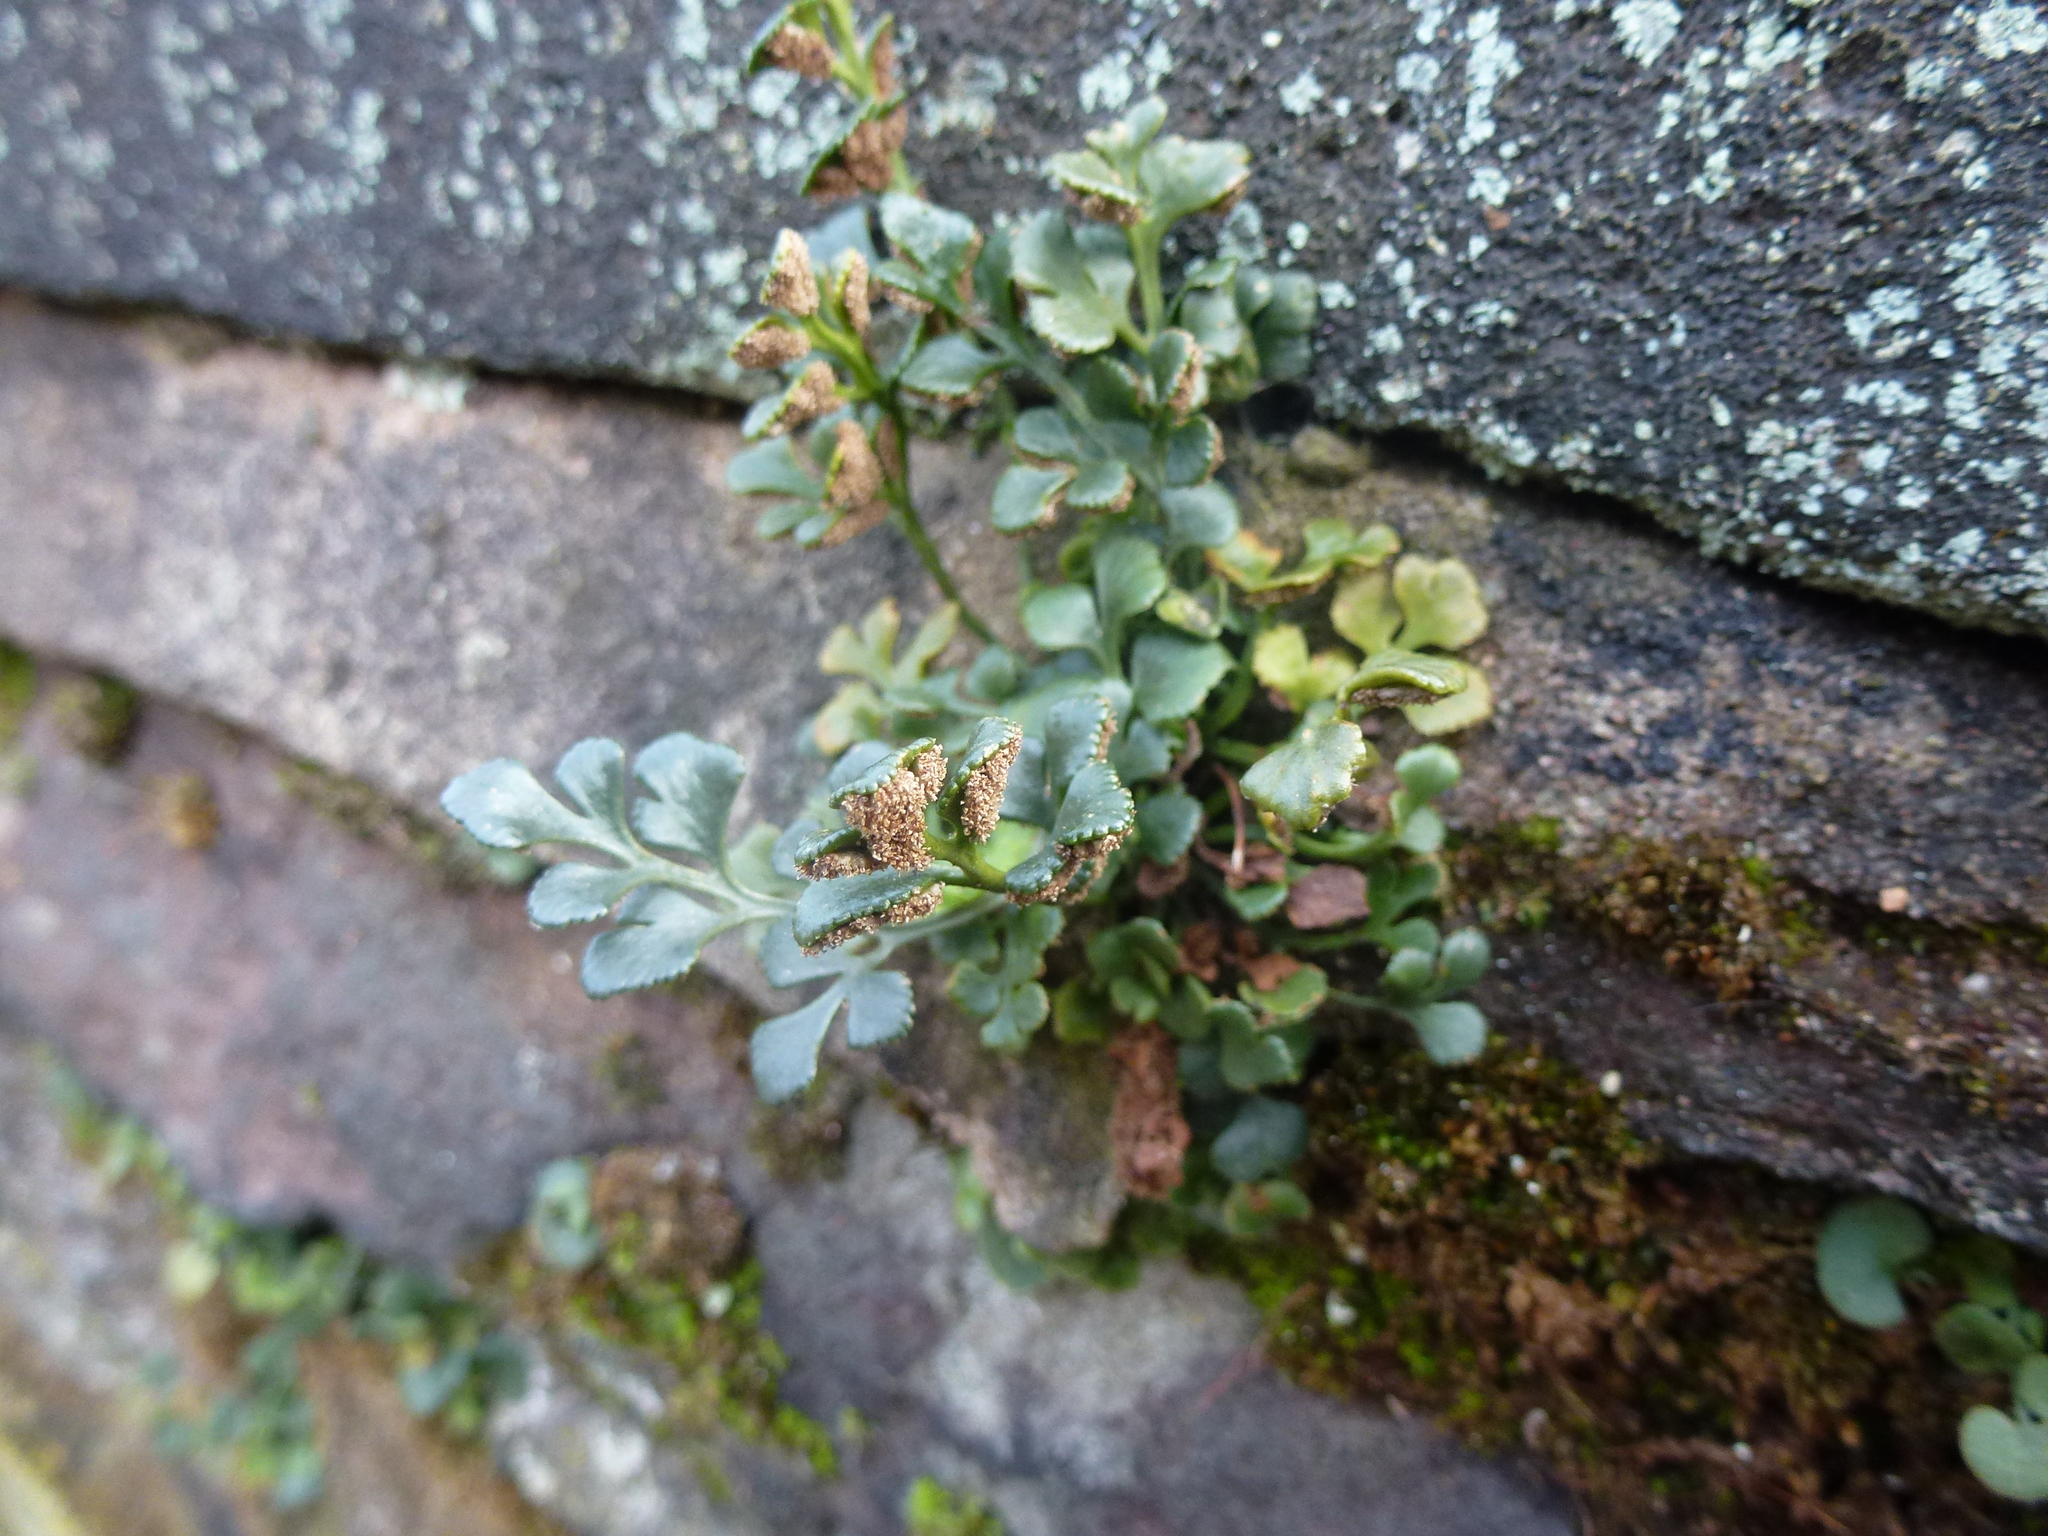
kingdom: Plantae
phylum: Tracheophyta
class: Polypodiopsida
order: Polypodiales
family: Aspleniaceae
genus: Asplenium
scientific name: Asplenium ruta-muraria
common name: Wall-rue
